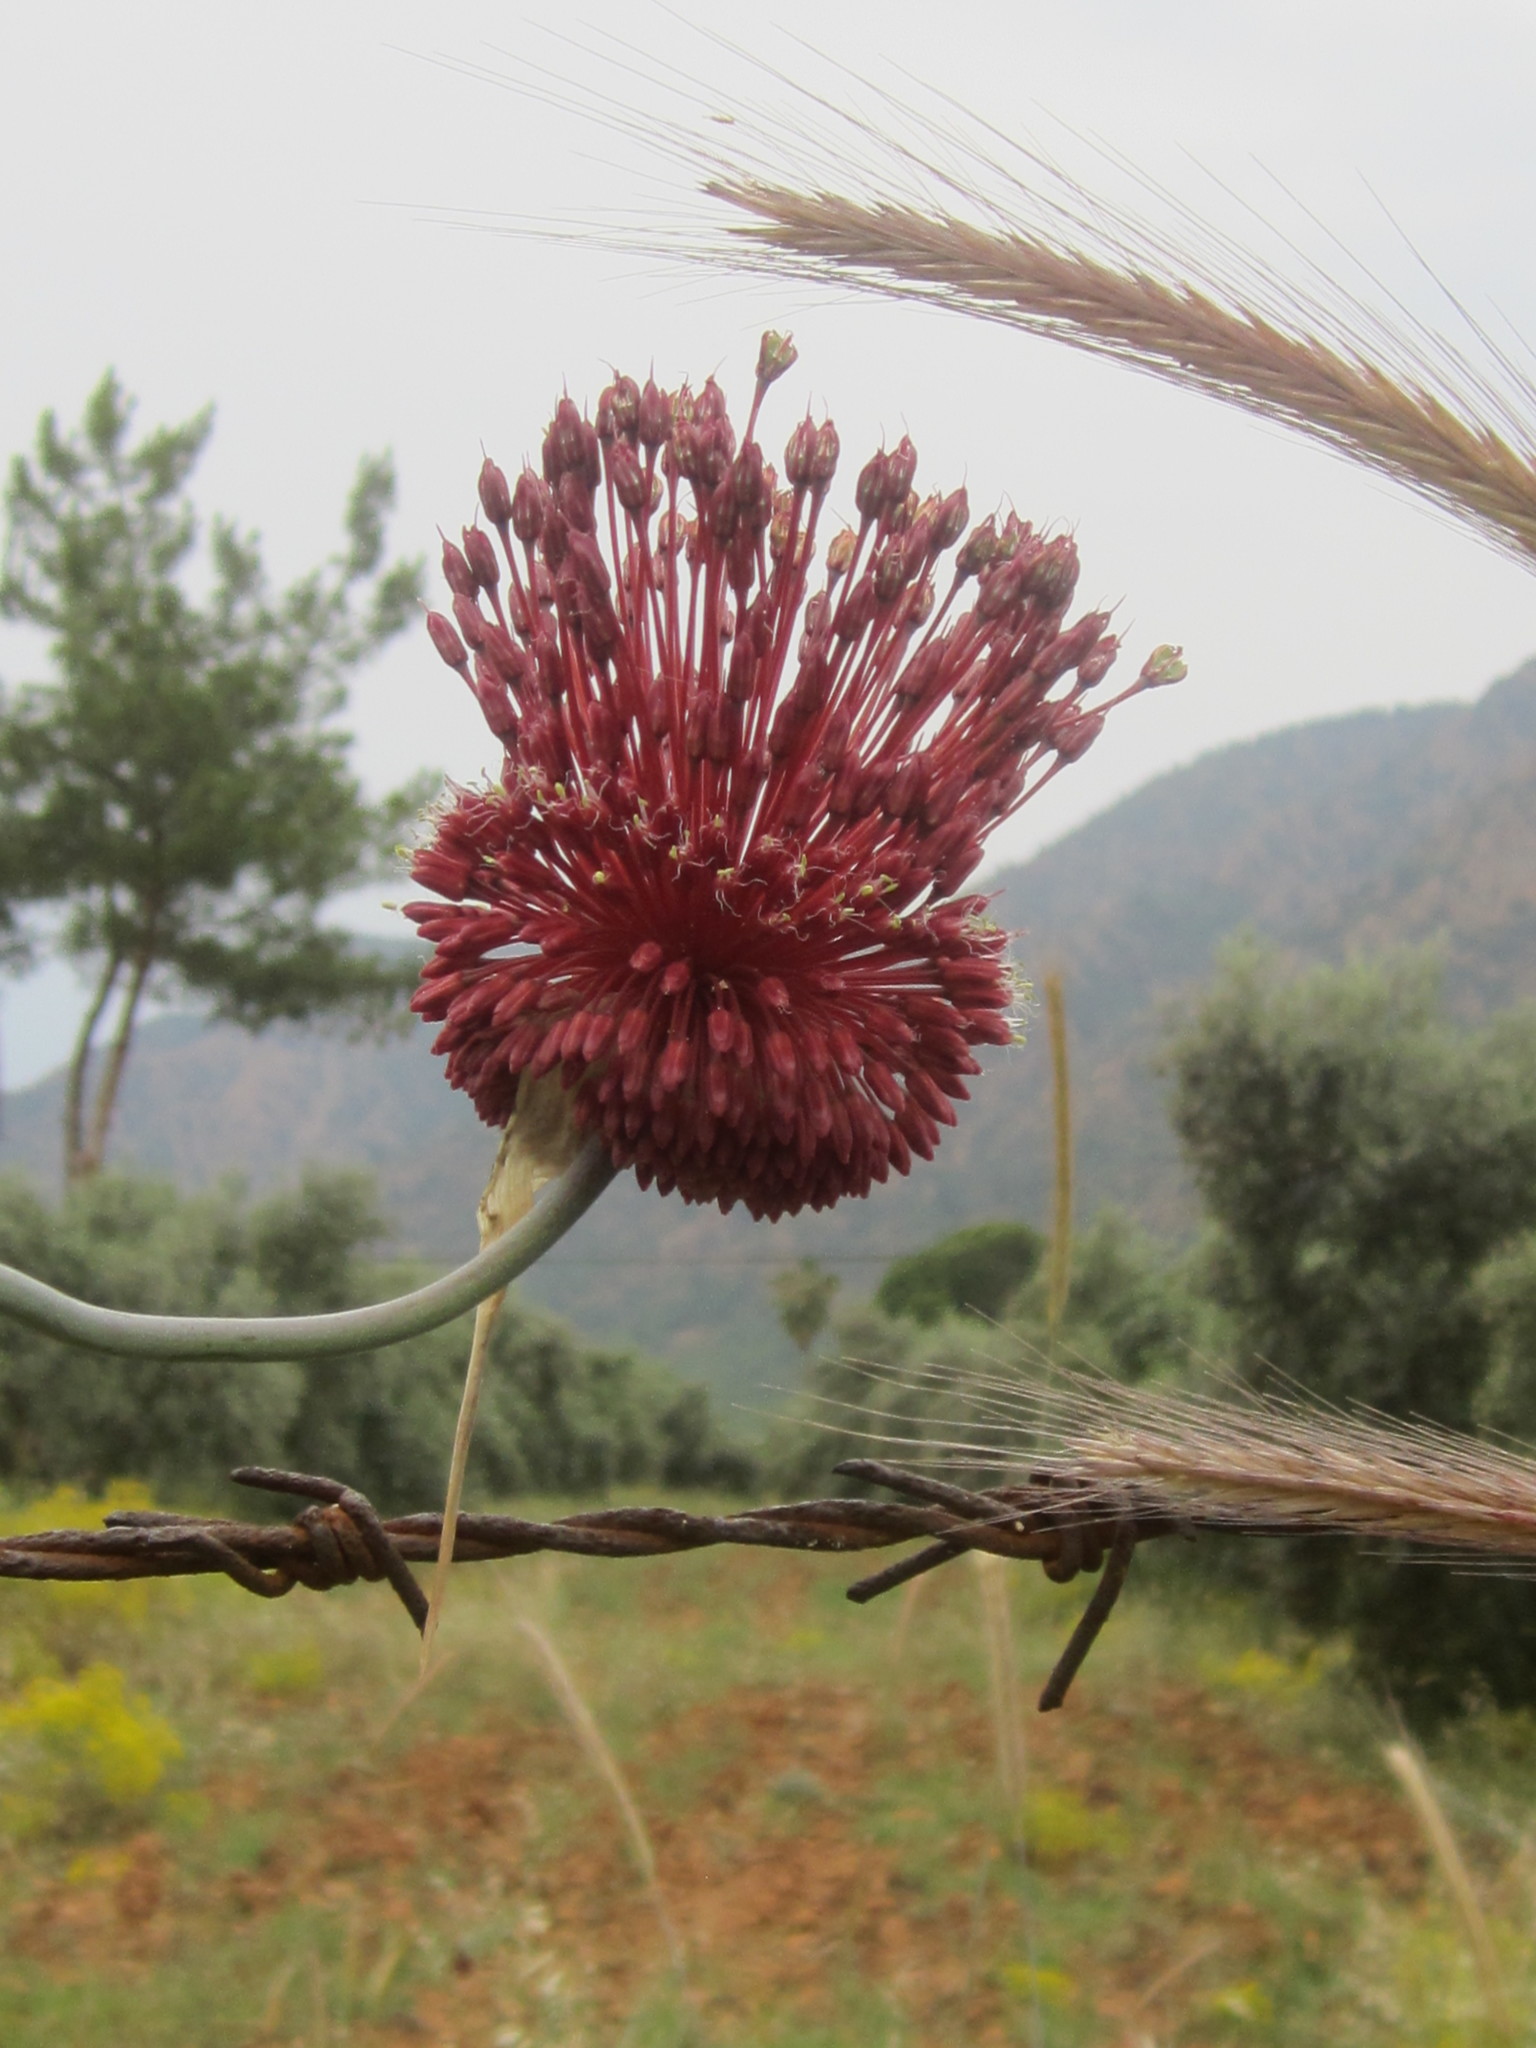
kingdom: Plantae
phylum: Tracheophyta
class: Liliopsida
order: Asparagales
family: Amaryllidaceae
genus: Allium
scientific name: Allium amethystinum
